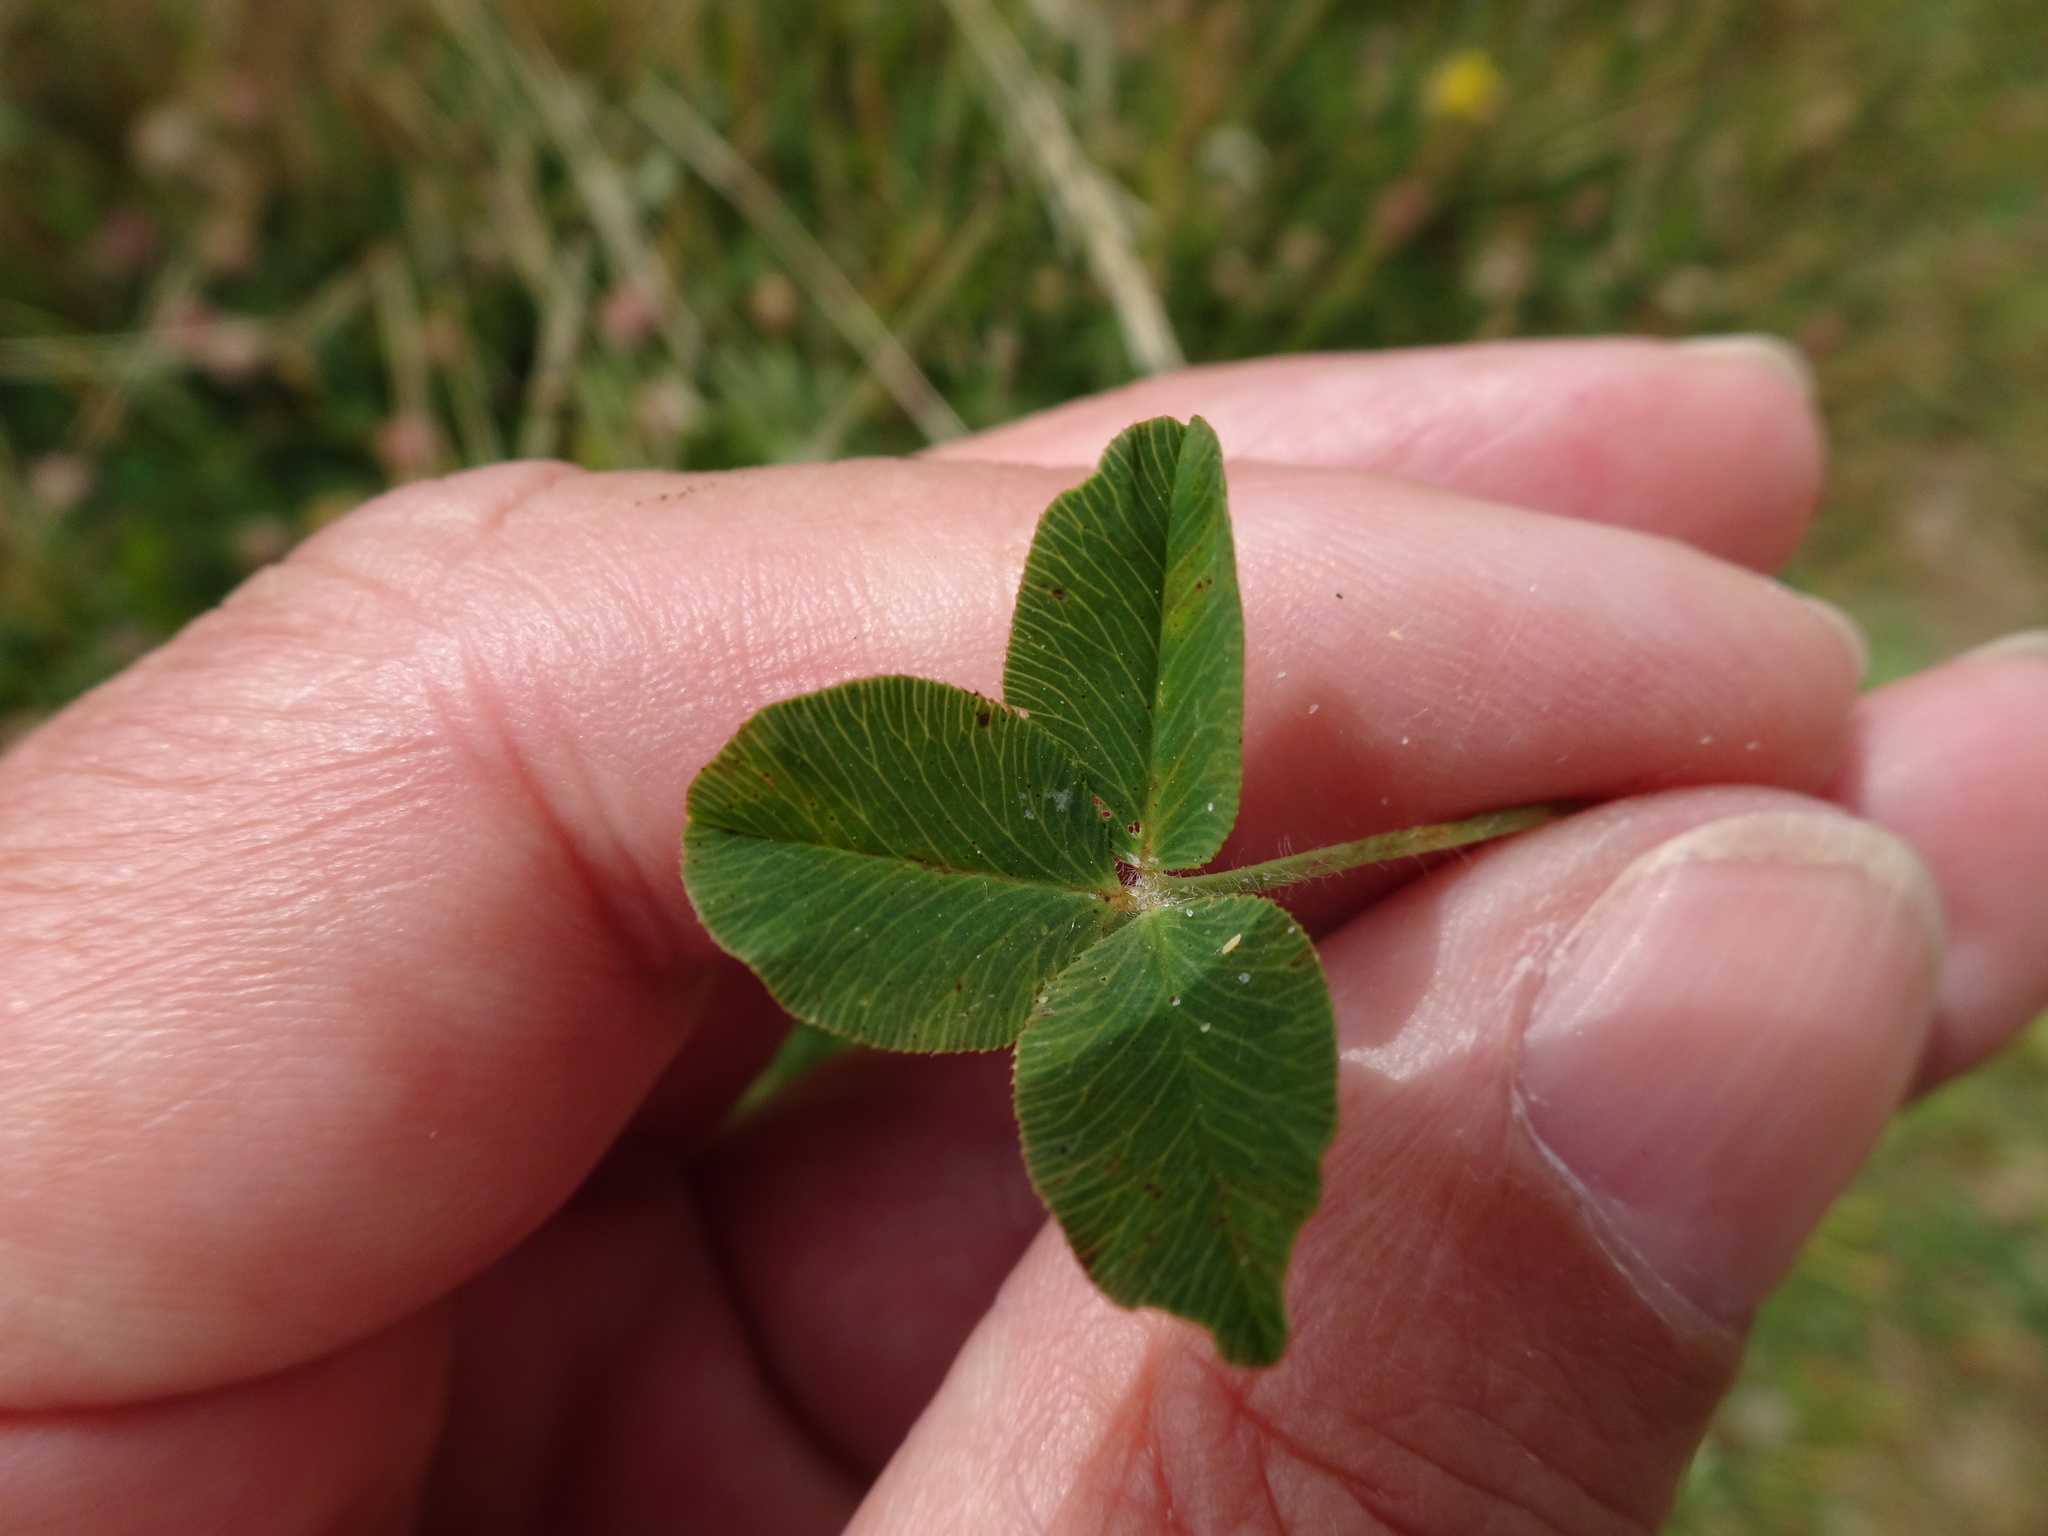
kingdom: Plantae
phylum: Tracheophyta
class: Magnoliopsida
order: Fabales
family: Fabaceae
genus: Trifolium
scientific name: Trifolium fragiferum
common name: Strawberry clover
